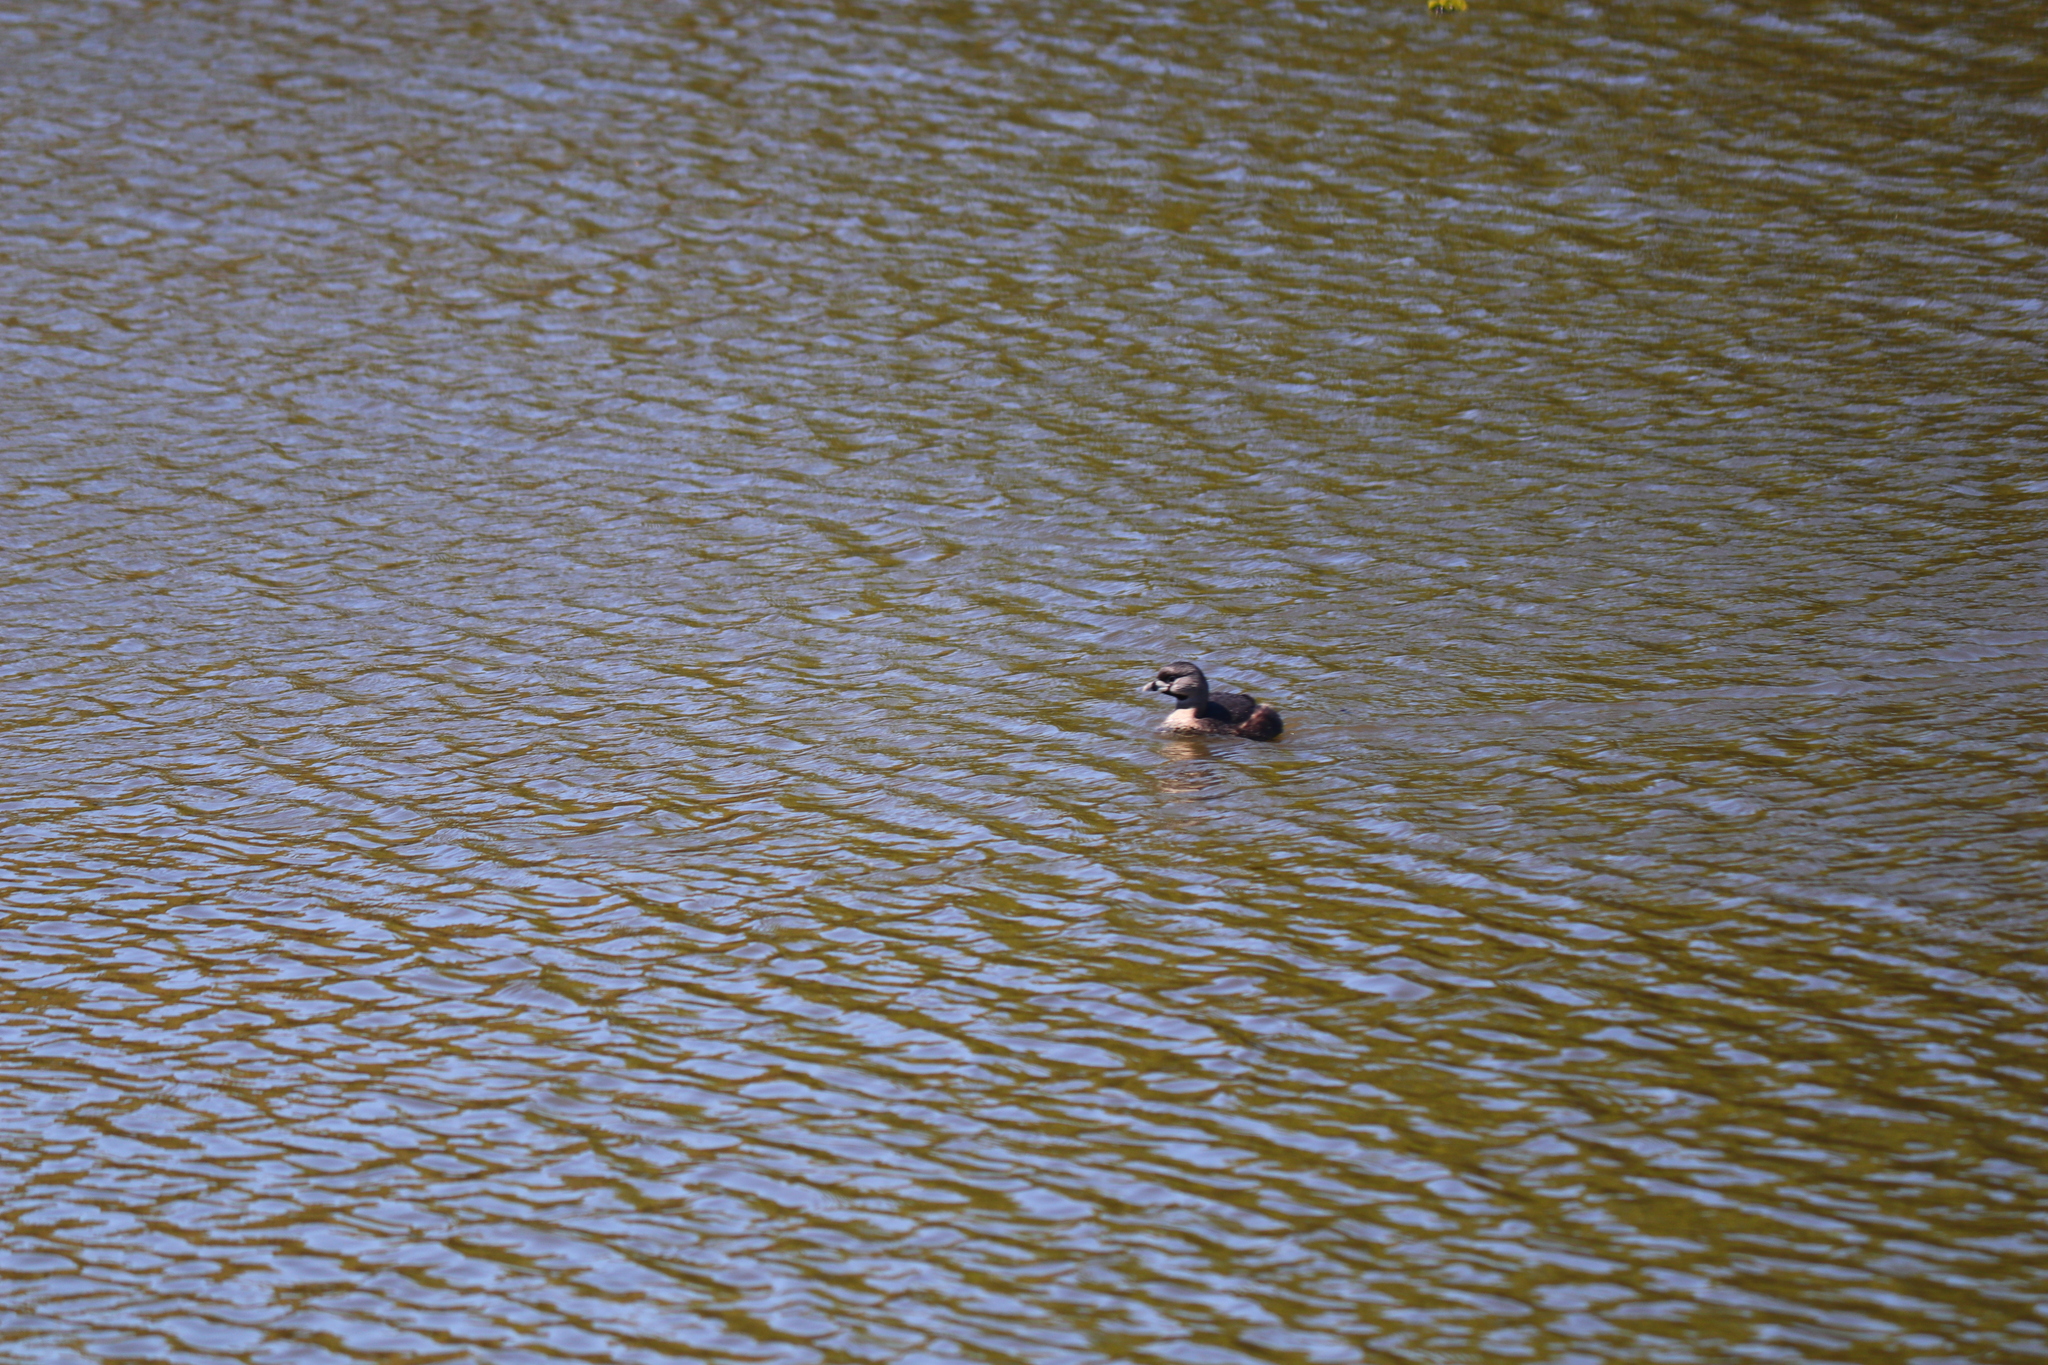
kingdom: Animalia
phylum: Chordata
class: Aves
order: Podicipediformes
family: Podicipedidae
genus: Podilymbus
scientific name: Podilymbus podiceps
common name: Pied-billed grebe
